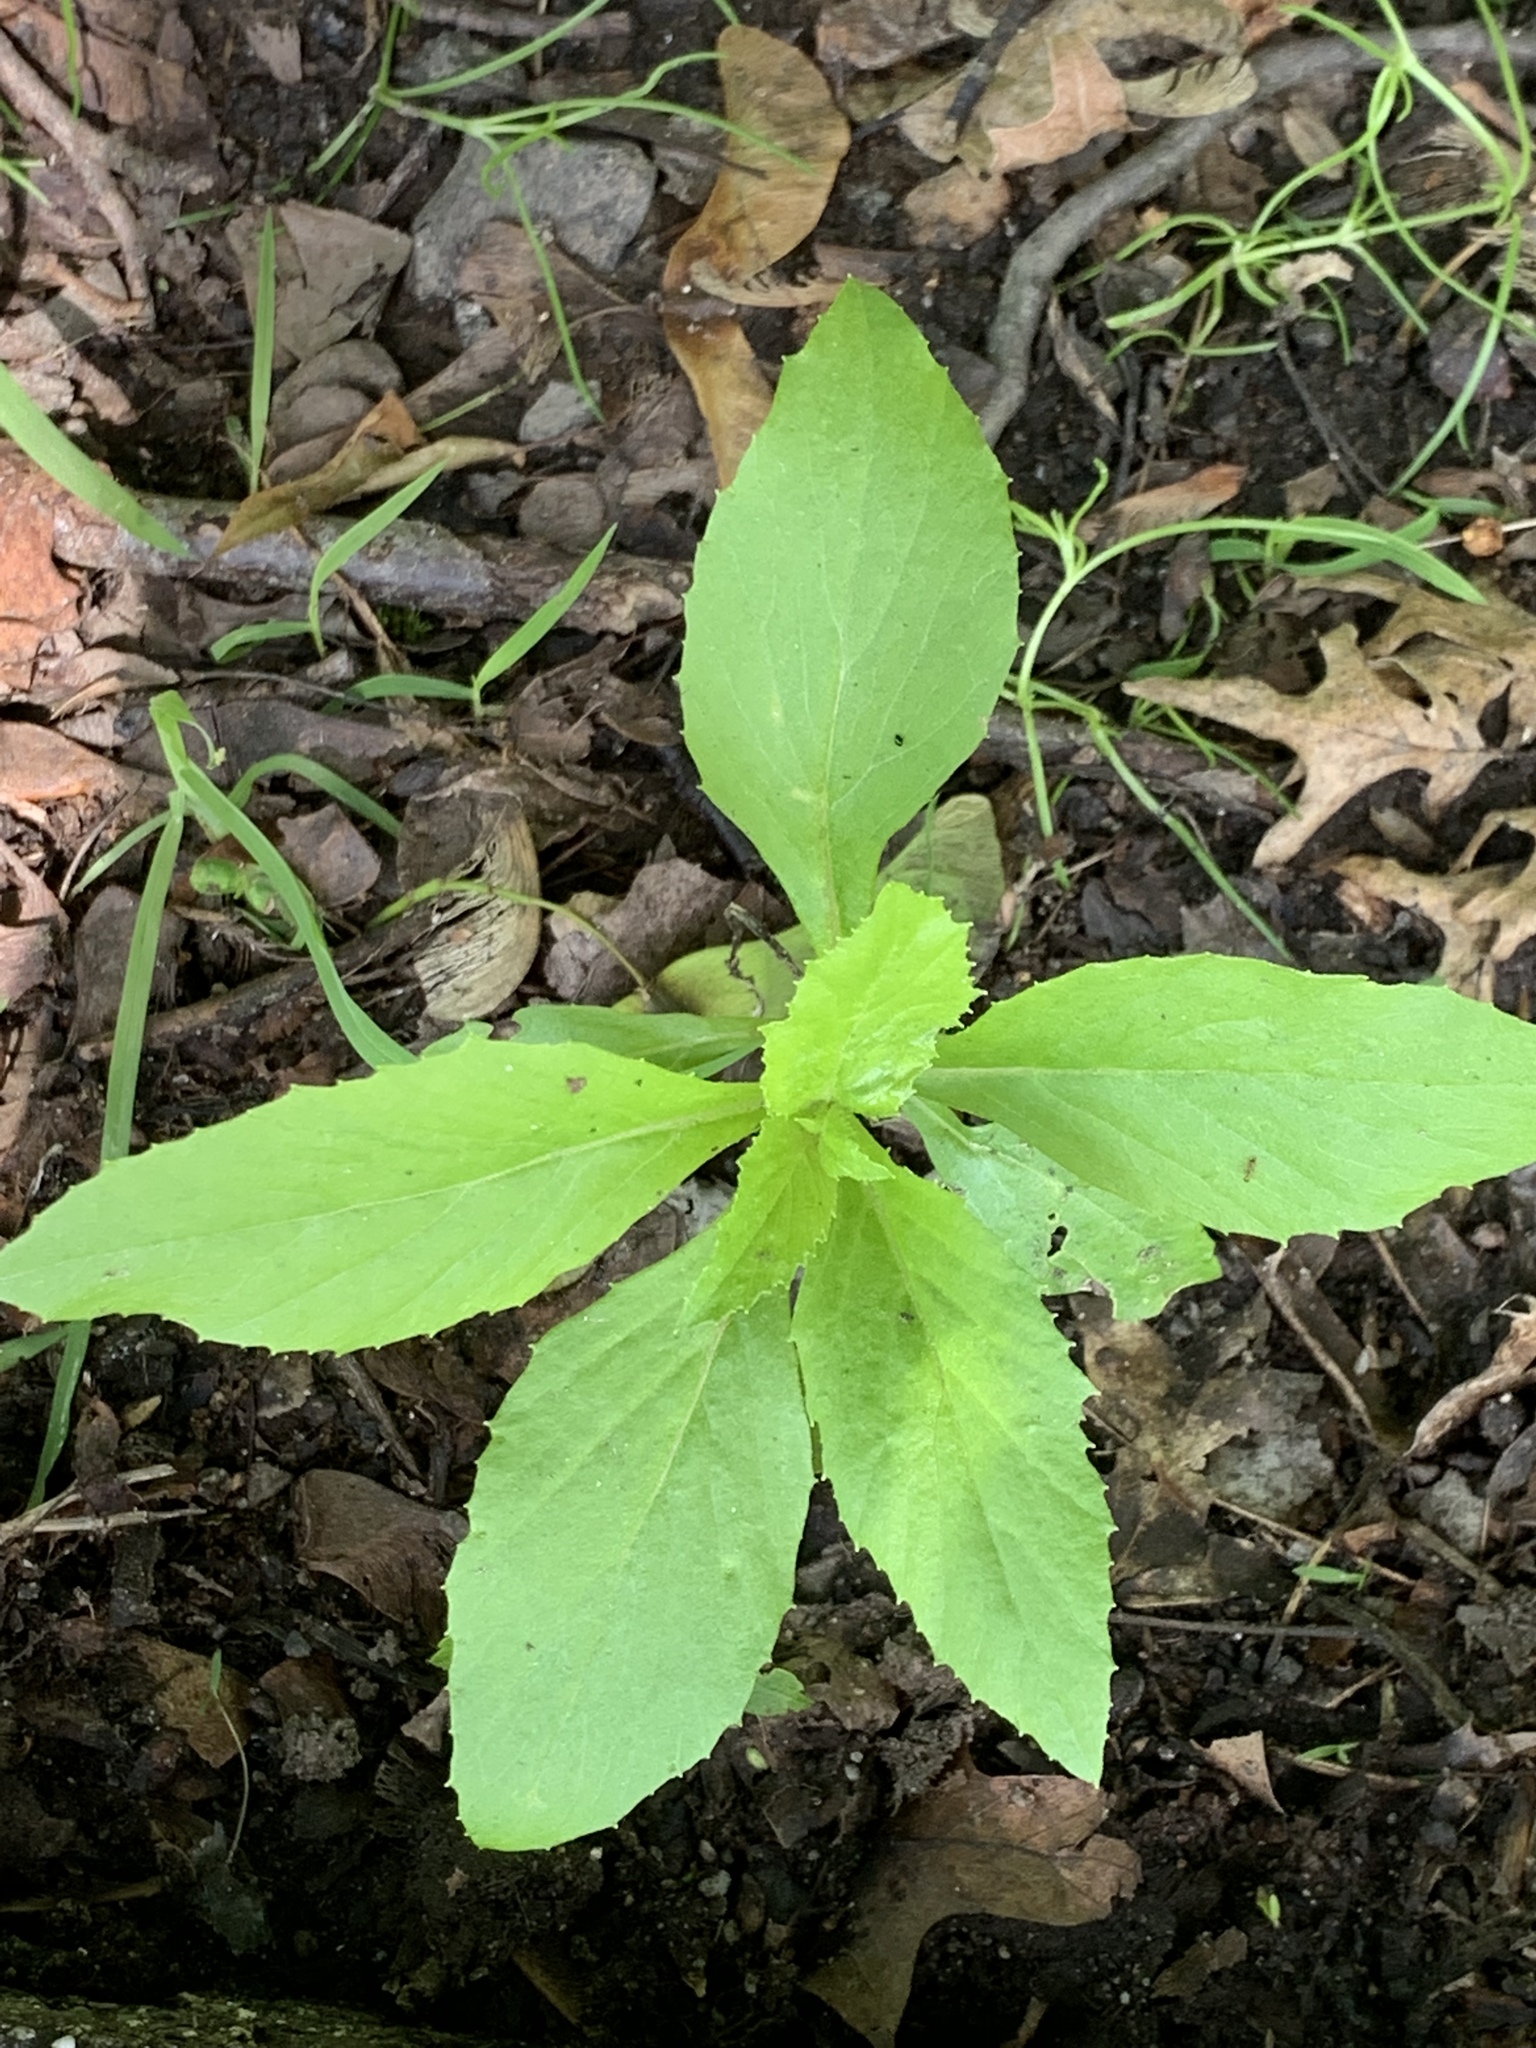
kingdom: Plantae
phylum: Tracheophyta
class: Magnoliopsida
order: Asterales
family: Asteraceae
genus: Erechtites
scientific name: Erechtites hieraciifolius
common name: American burnweed
